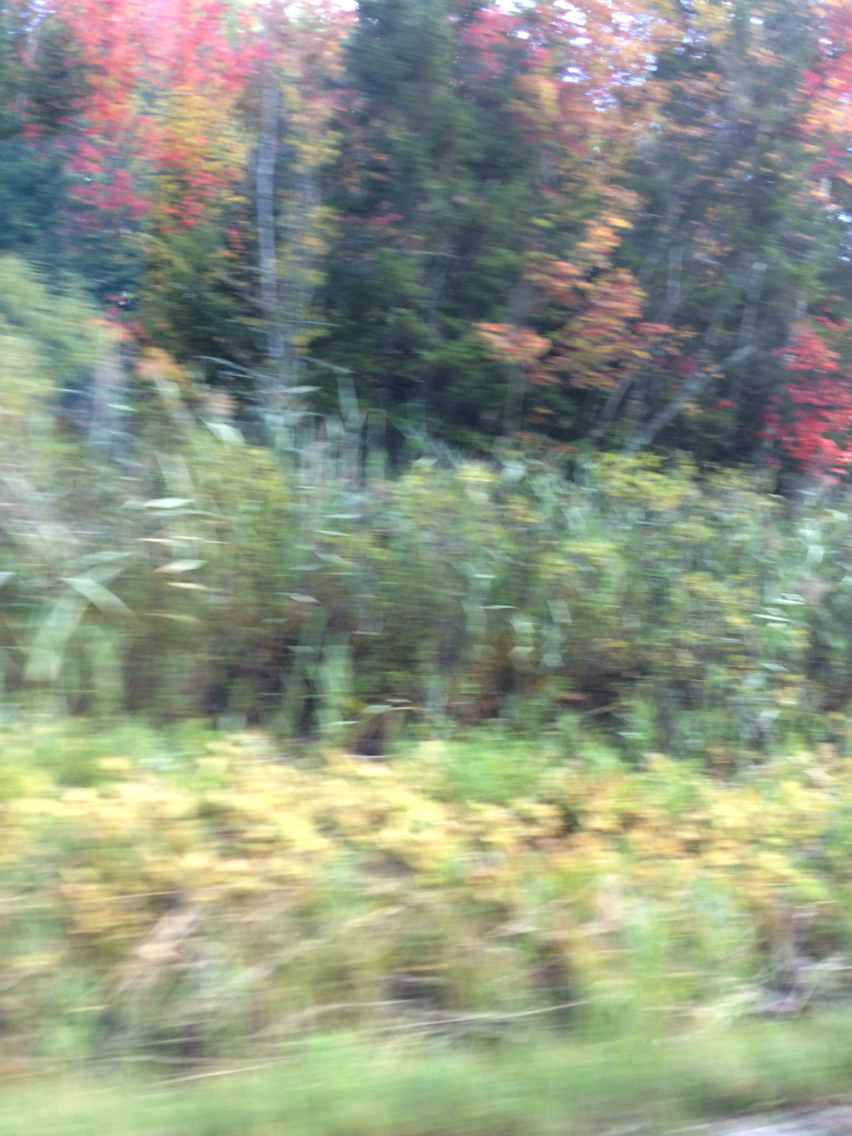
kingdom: Plantae
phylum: Tracheophyta
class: Liliopsida
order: Poales
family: Poaceae
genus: Phragmites
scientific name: Phragmites australis
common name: Common reed
